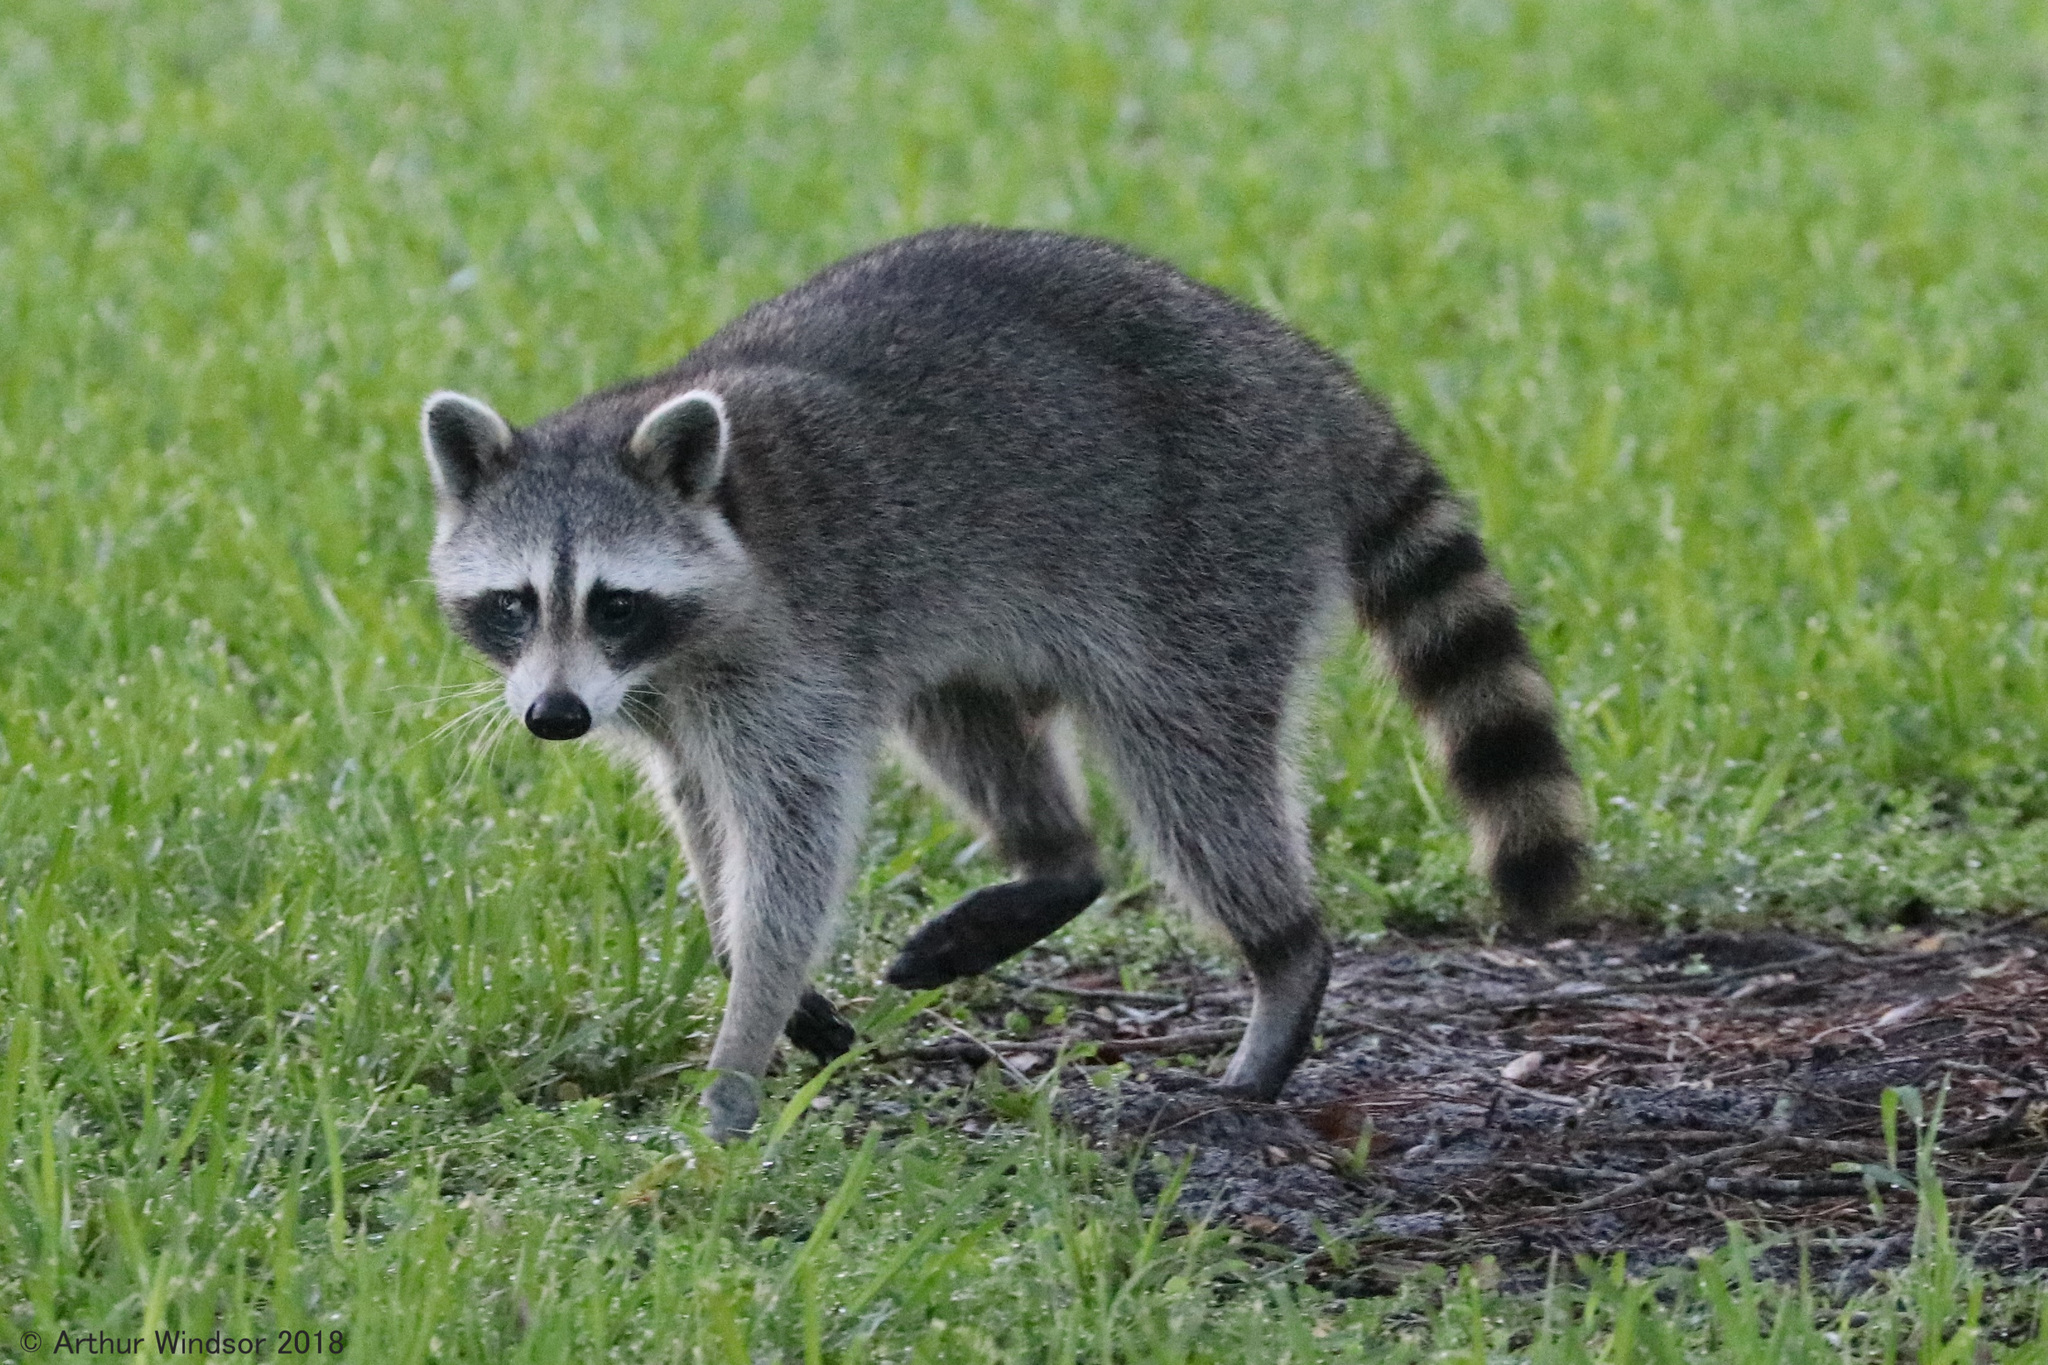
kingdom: Animalia
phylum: Chordata
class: Mammalia
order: Carnivora
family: Procyonidae
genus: Procyon
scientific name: Procyon lotor
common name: Raccoon
